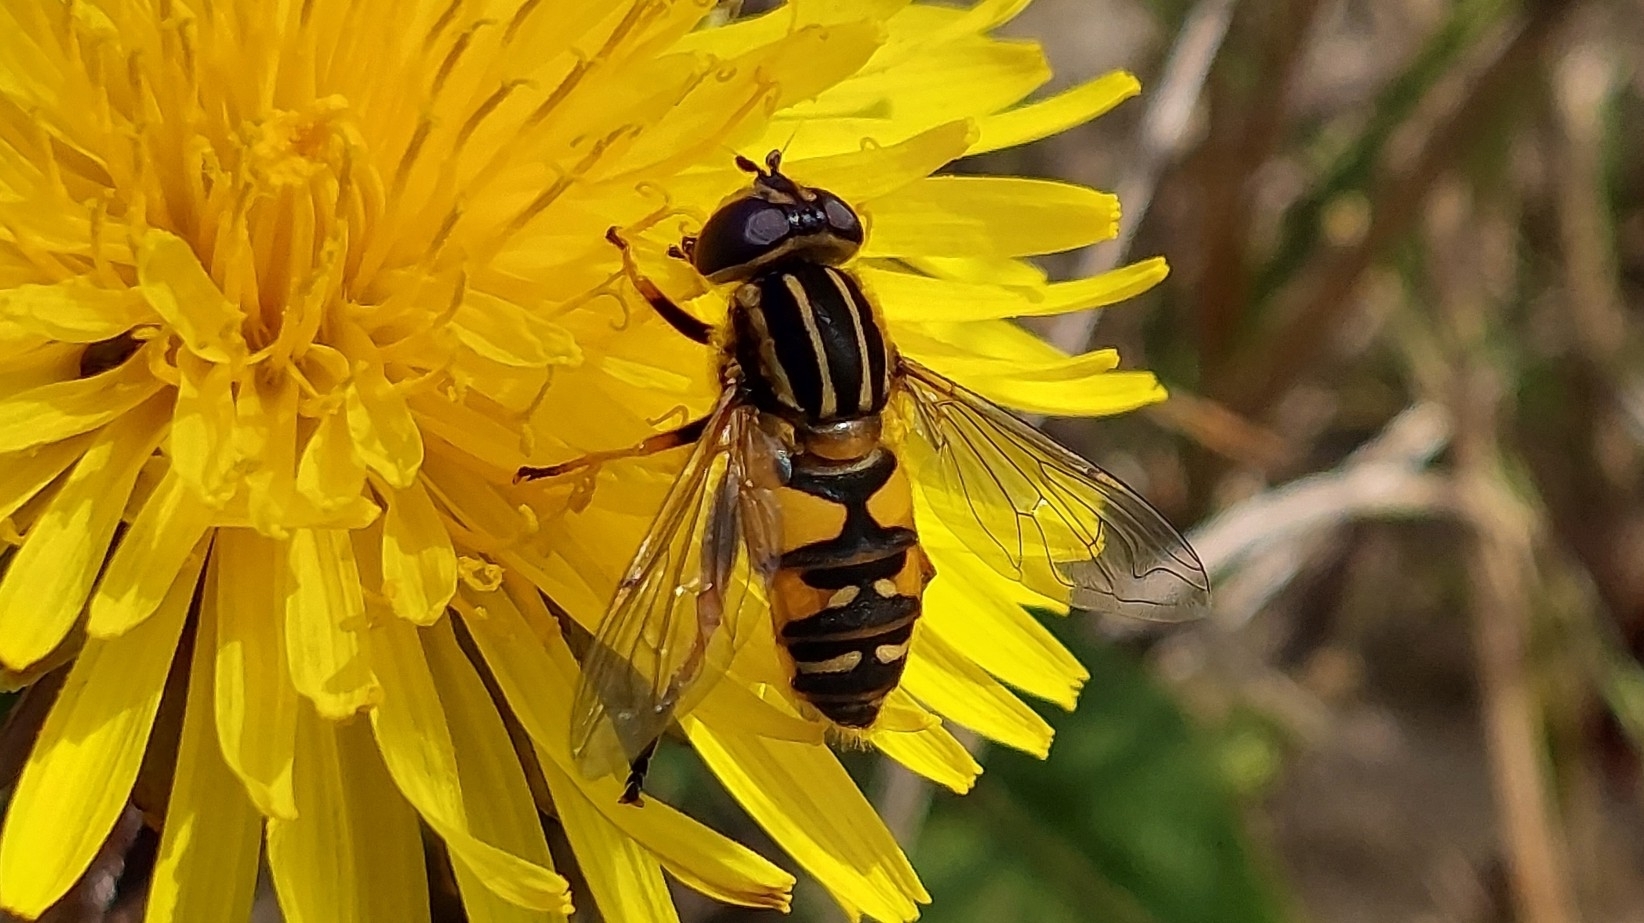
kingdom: Animalia
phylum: Arthropoda
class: Insecta
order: Diptera
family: Syrphidae
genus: Helophilus
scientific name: Helophilus pendulus
